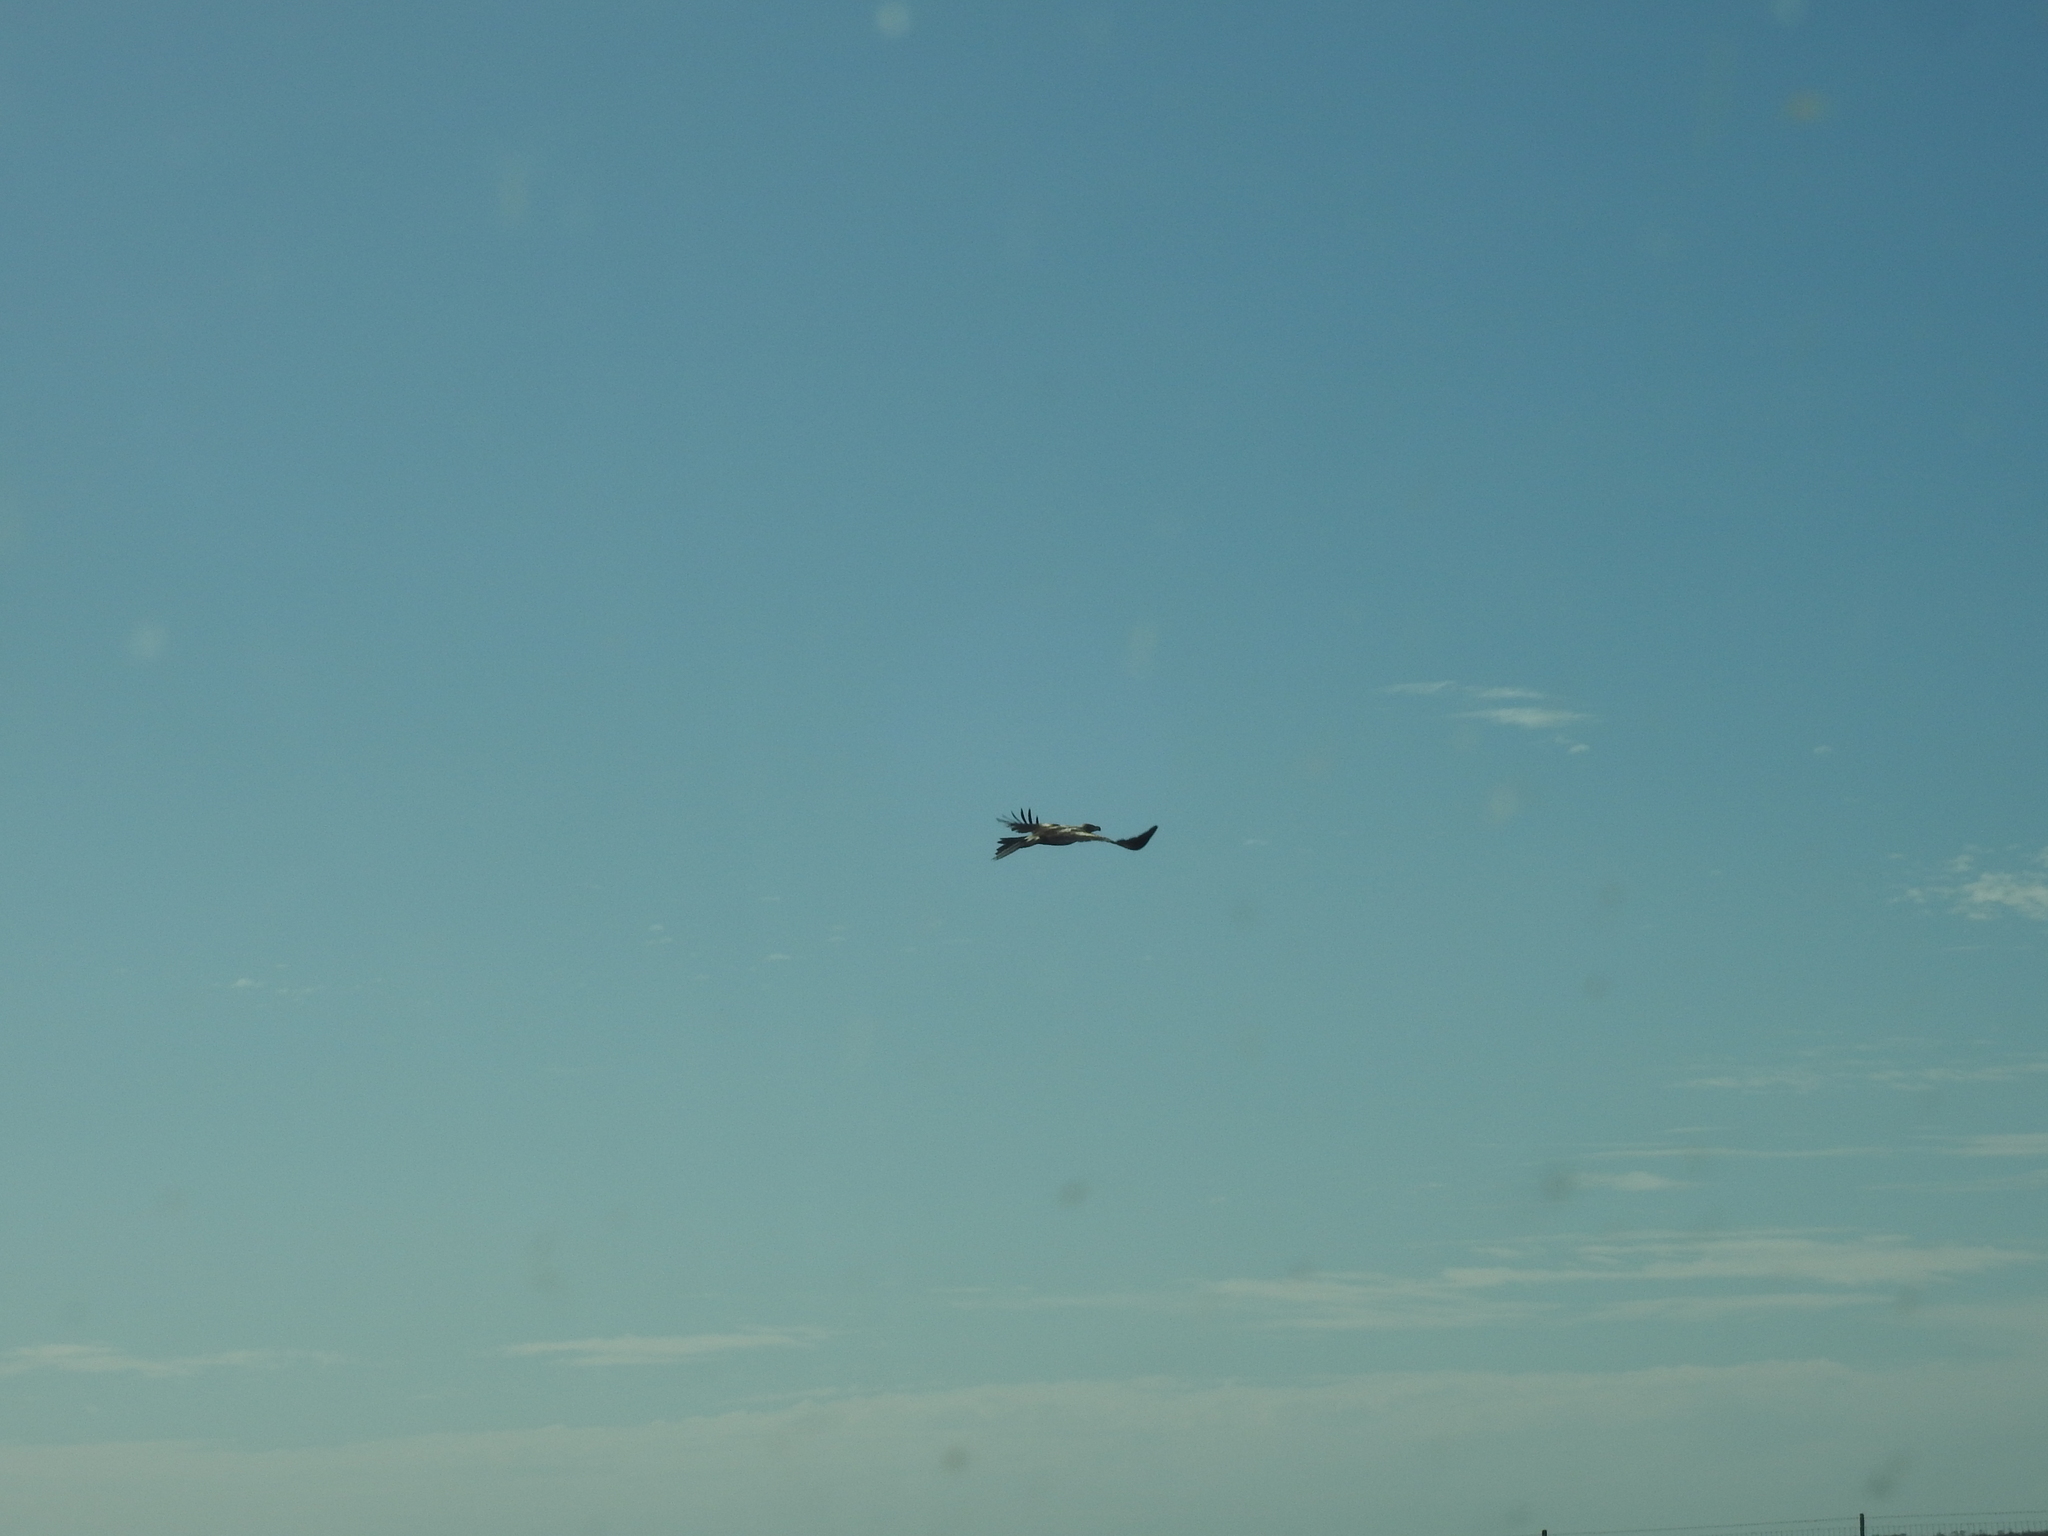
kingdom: Animalia
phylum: Chordata
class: Aves
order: Accipitriformes
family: Accipitridae
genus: Aquila
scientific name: Aquila audax
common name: Wedge-tailed eagle
